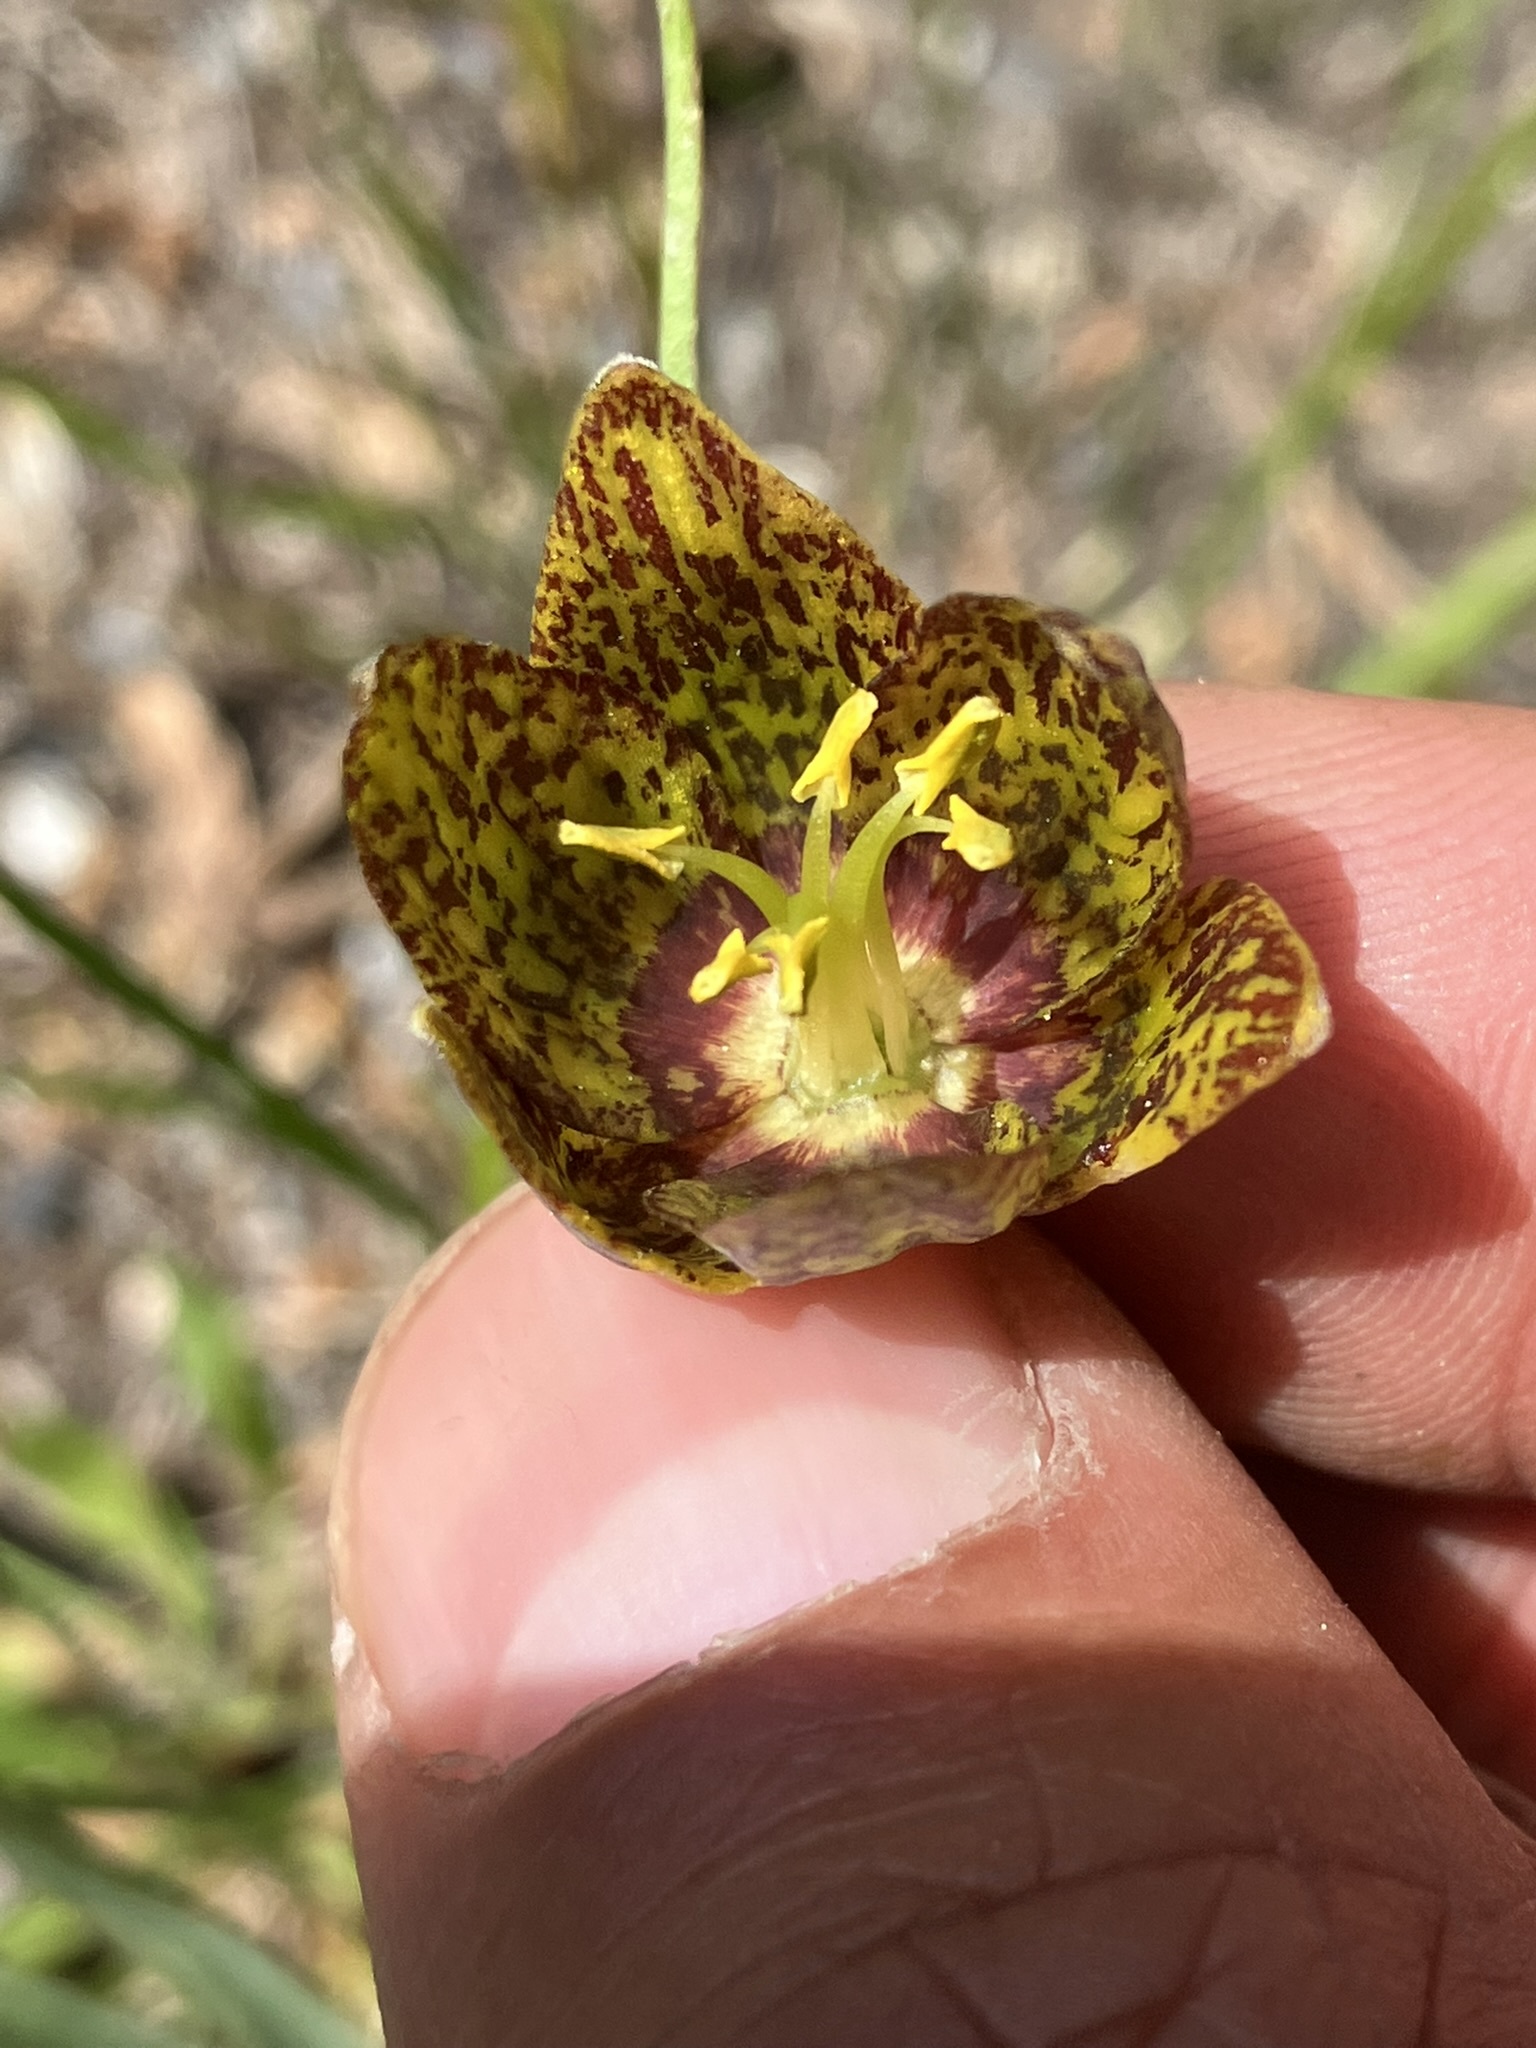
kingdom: Plantae
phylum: Tracheophyta
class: Liliopsida
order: Liliales
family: Liliaceae
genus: Fritillaria
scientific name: Fritillaria atropurpurea
